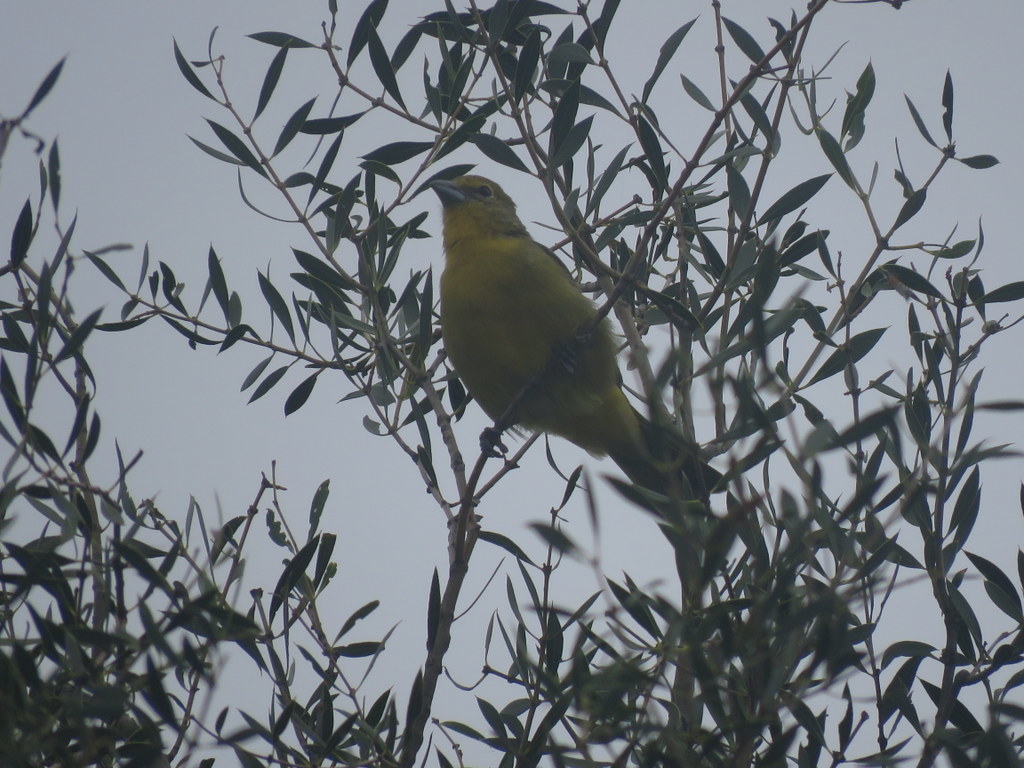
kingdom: Animalia
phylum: Chordata
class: Aves
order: Passeriformes
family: Cardinalidae
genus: Piranga
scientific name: Piranga flava
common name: Red tanager
